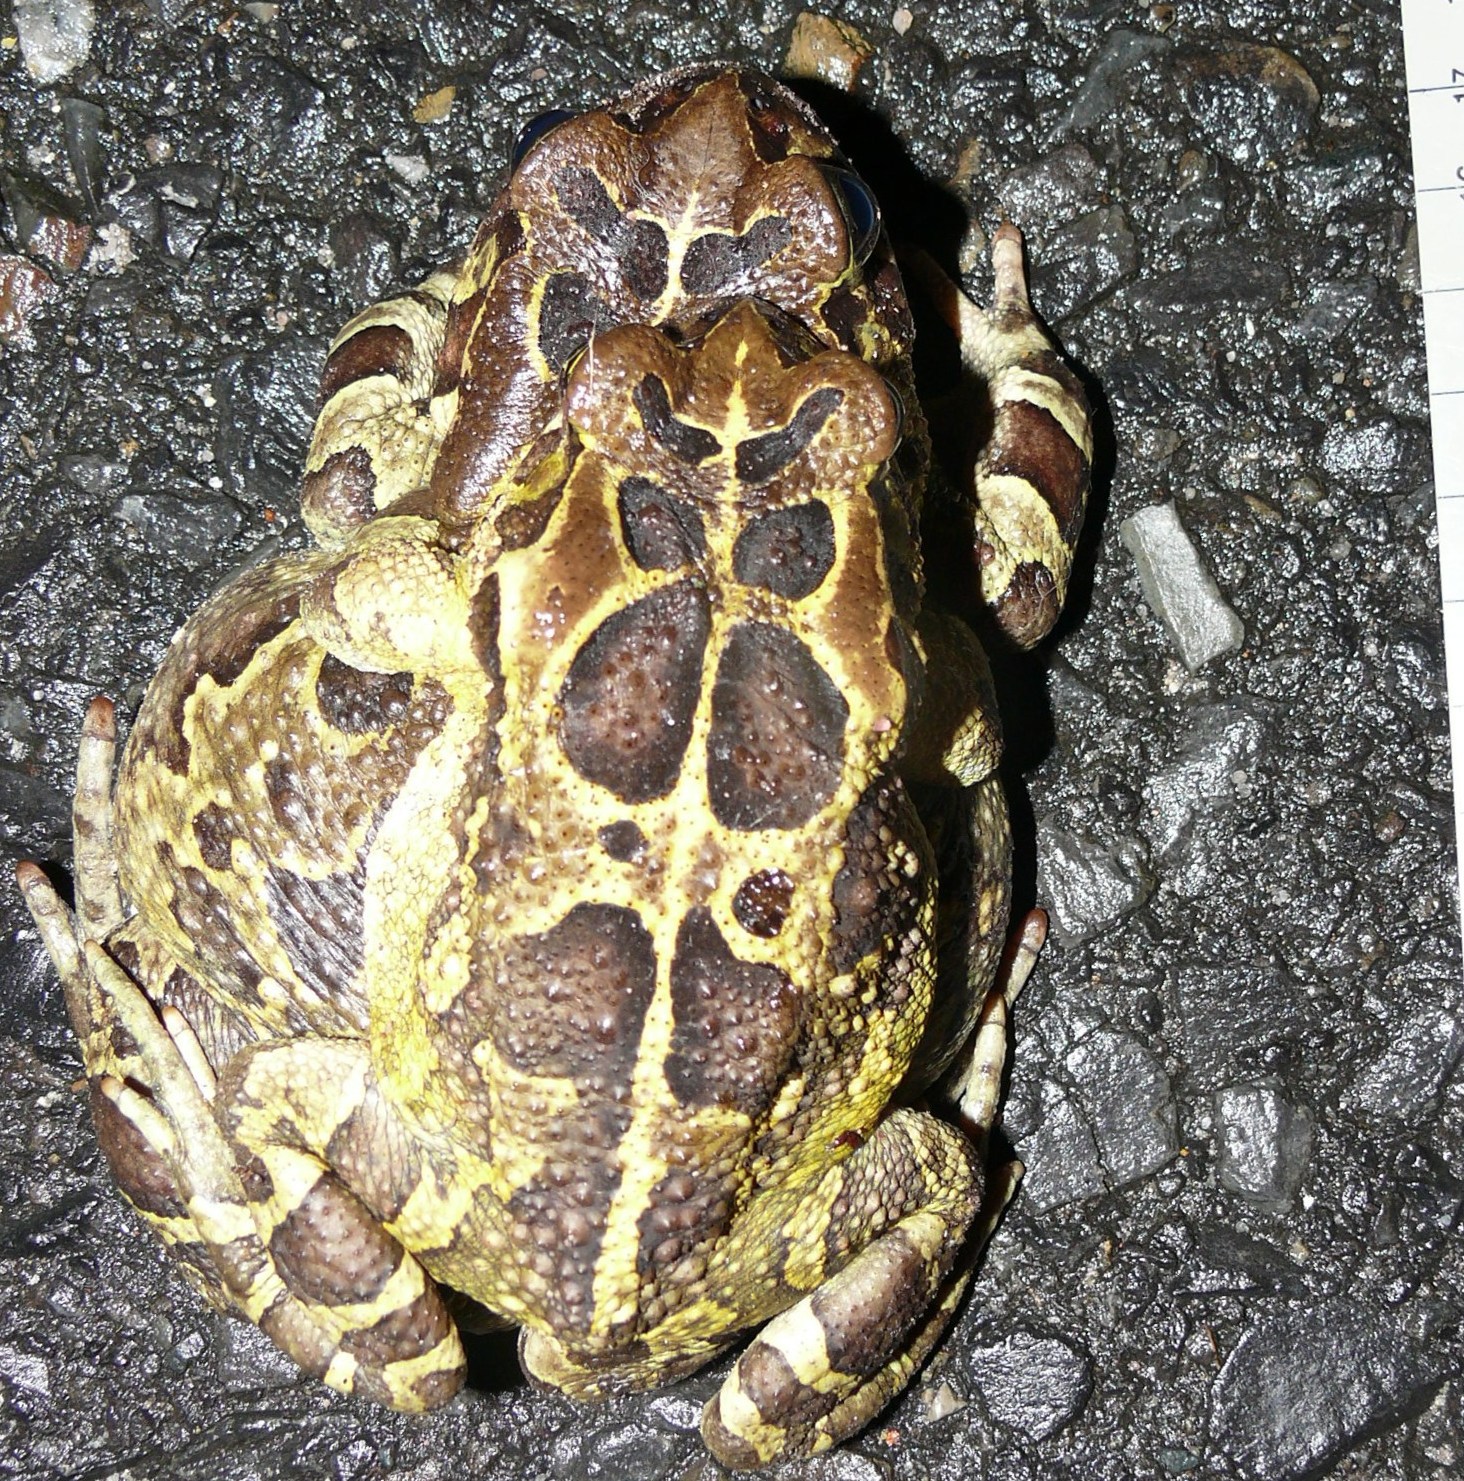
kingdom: Animalia
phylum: Chordata
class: Amphibia
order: Anura
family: Bufonidae
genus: Sclerophrys
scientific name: Sclerophrys pantherina
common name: Panther toad
